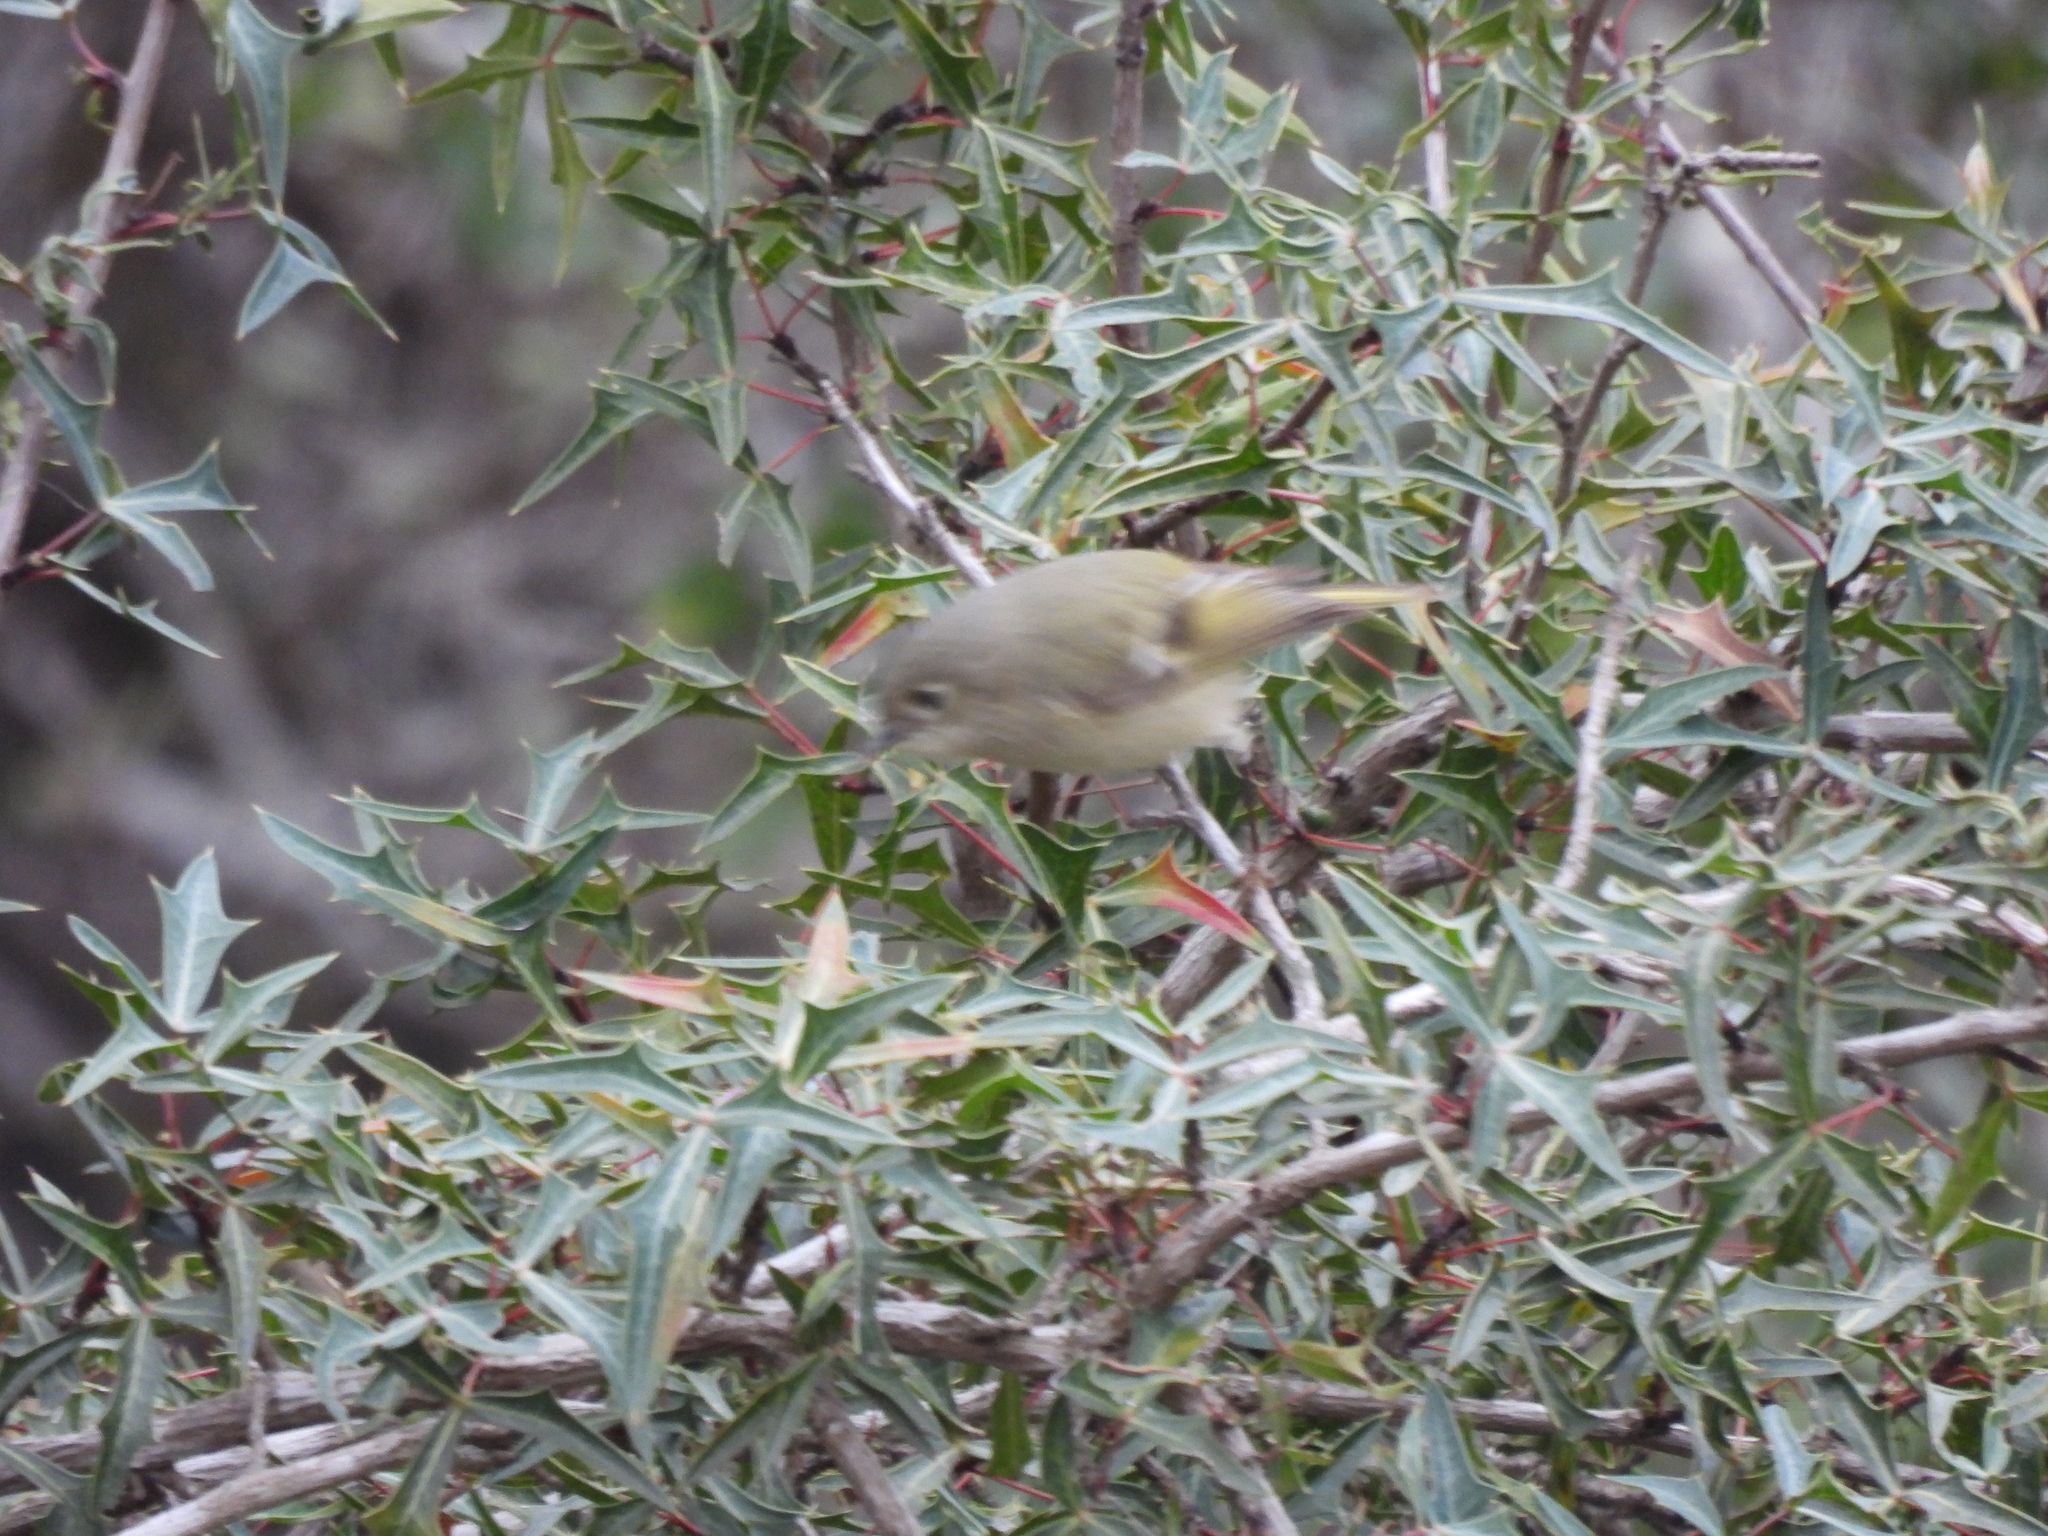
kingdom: Animalia
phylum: Chordata
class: Aves
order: Passeriformes
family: Regulidae
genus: Regulus
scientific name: Regulus calendula
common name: Ruby-crowned kinglet
